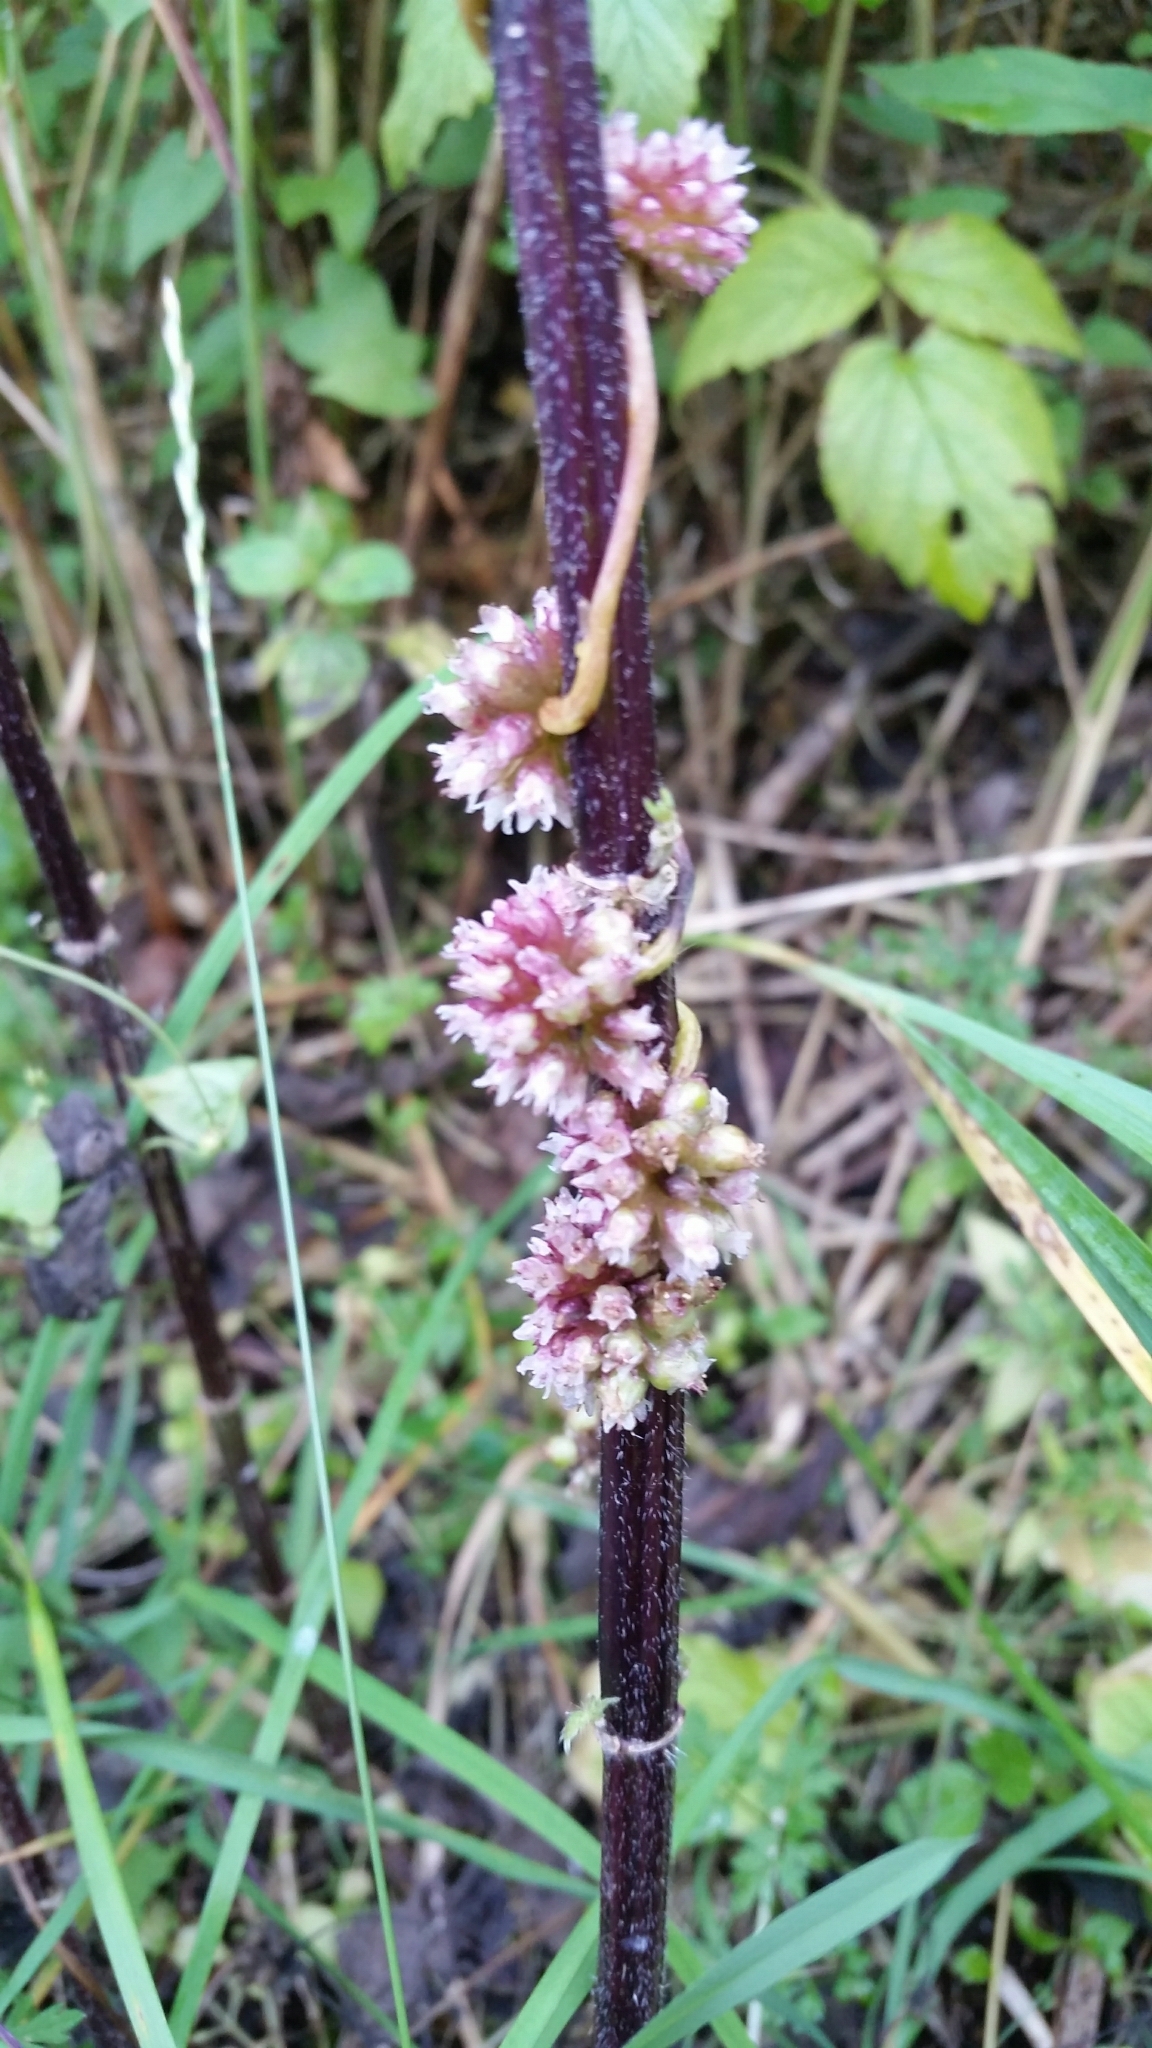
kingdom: Plantae
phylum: Tracheophyta
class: Magnoliopsida
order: Solanales
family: Convolvulaceae
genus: Cuscuta
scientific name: Cuscuta europaea
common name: Greater dodder
